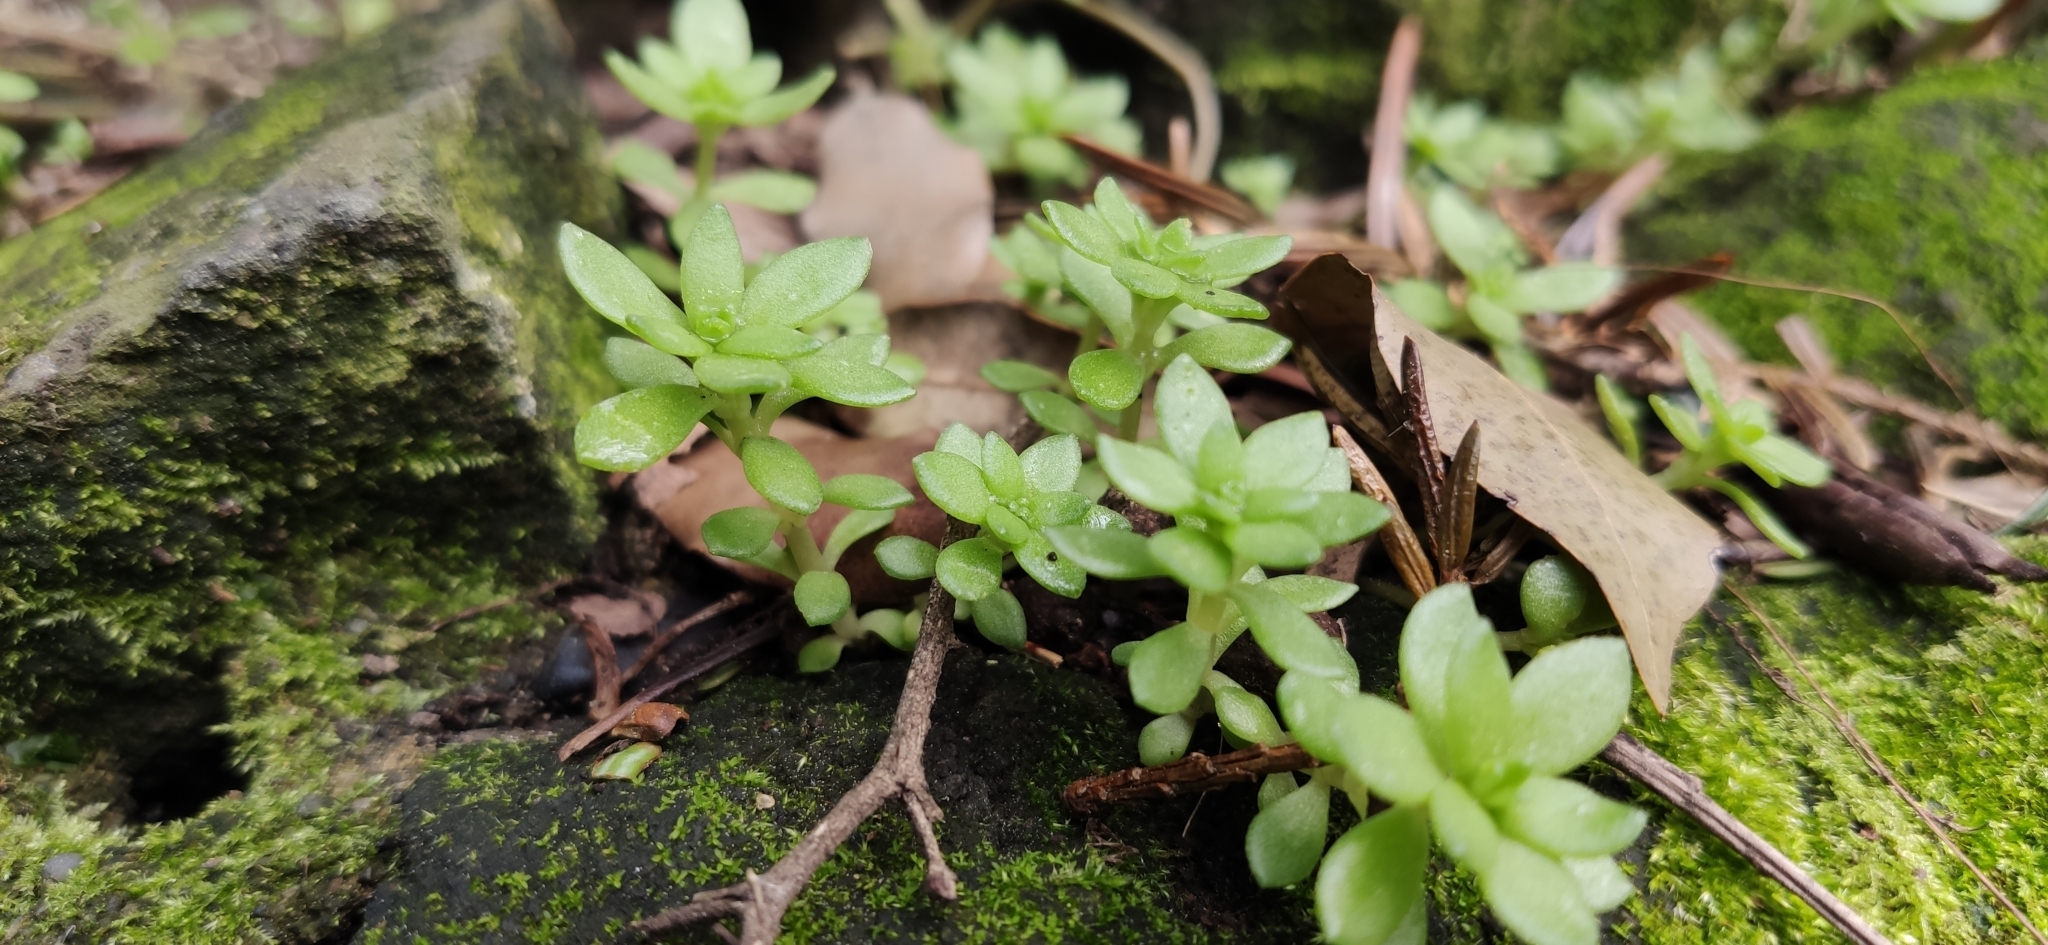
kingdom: Plantae
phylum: Tracheophyta
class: Magnoliopsida
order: Saxifragales
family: Crassulaceae
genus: Sedum
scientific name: Sedum sarmentosum
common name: Stringy stonecrop
